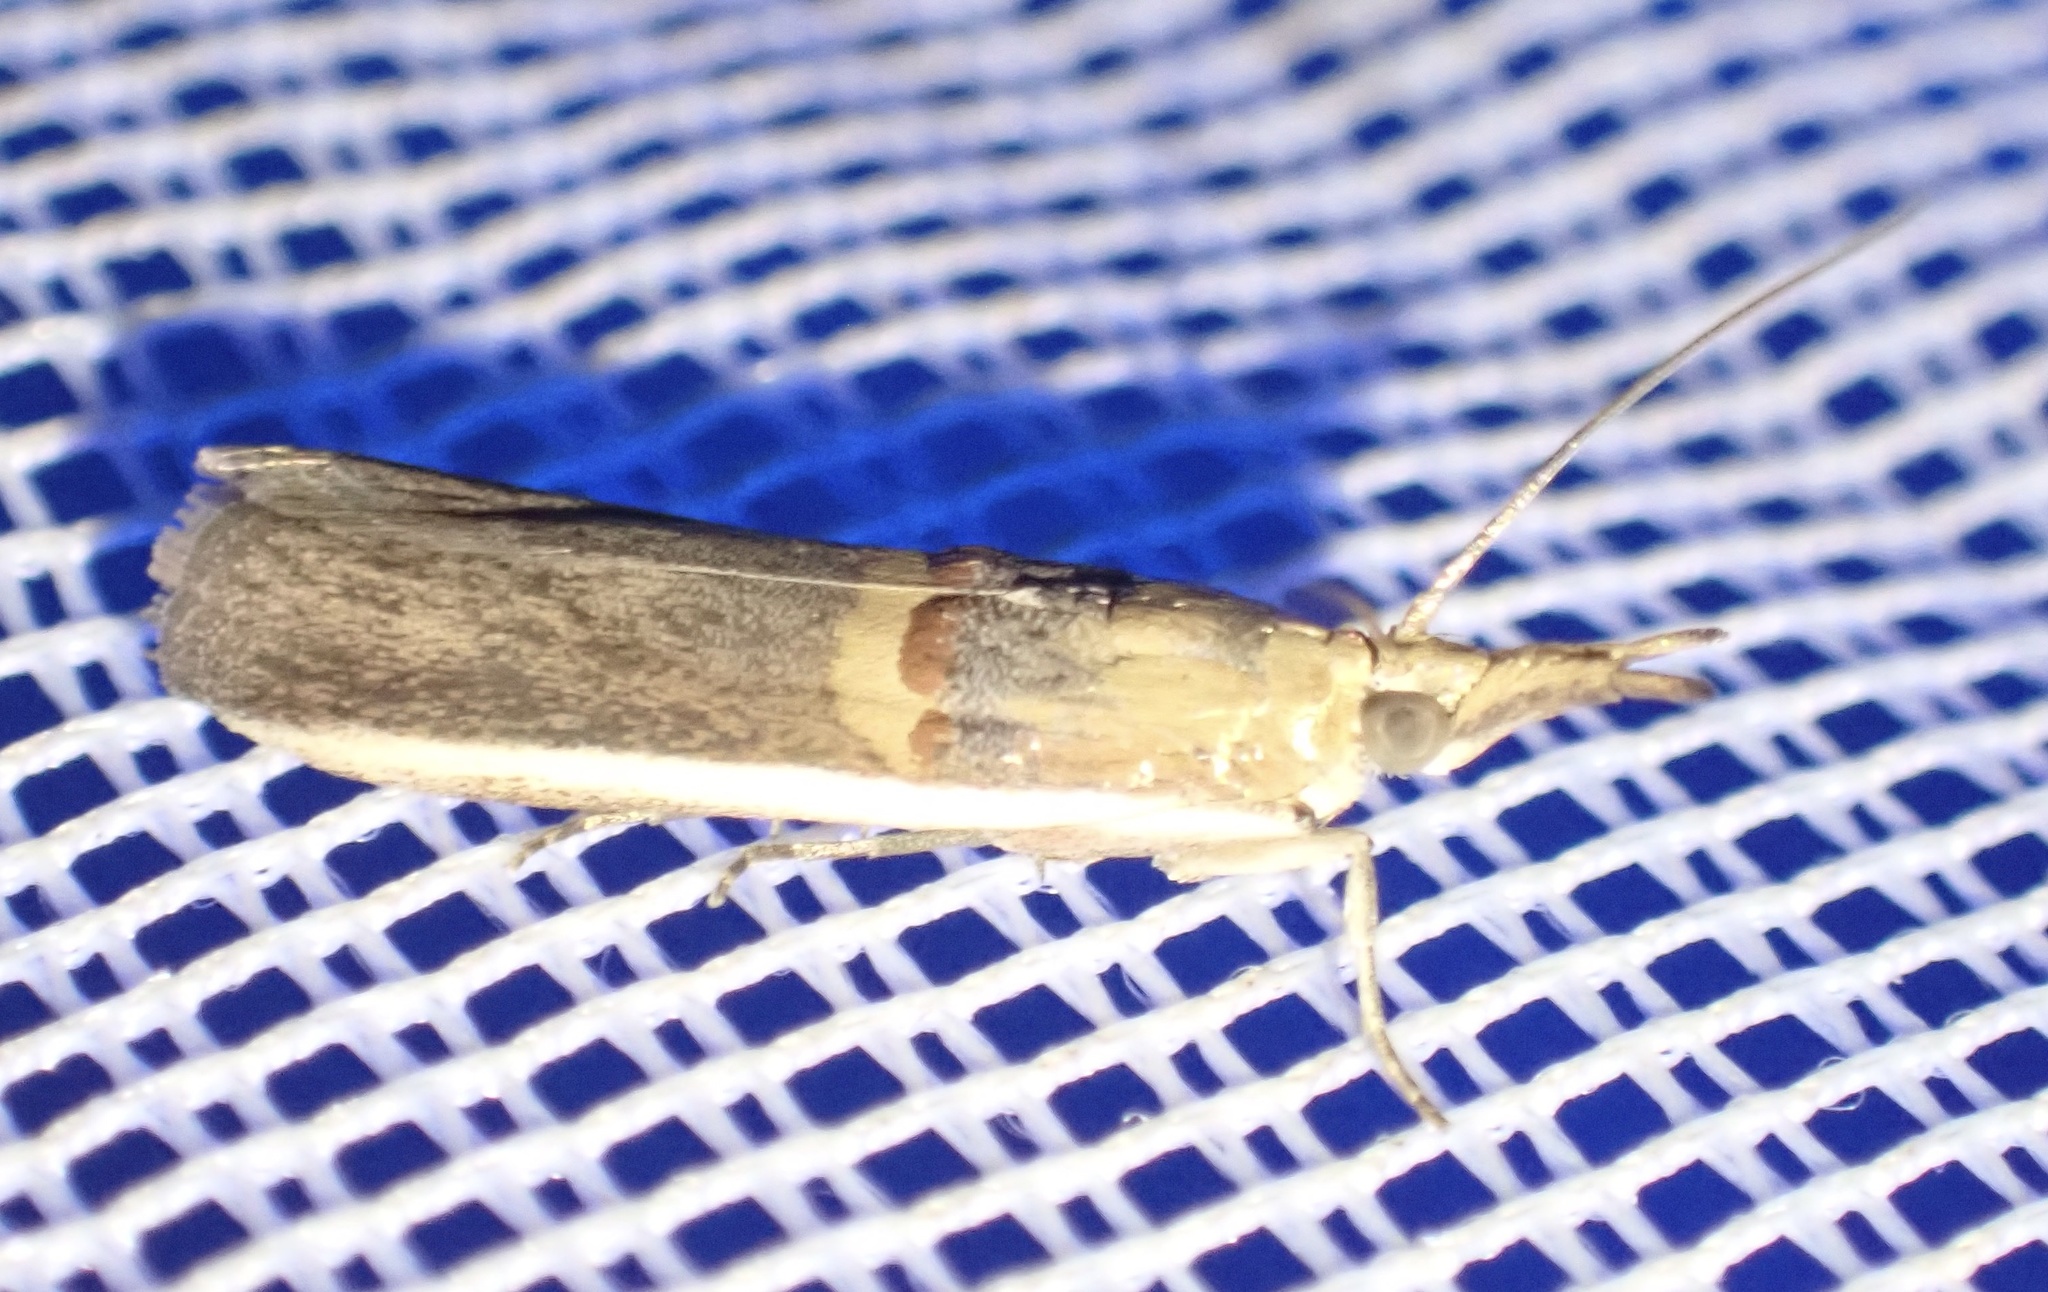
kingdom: Animalia
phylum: Arthropoda
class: Insecta
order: Lepidoptera
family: Pyralidae
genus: Etiella
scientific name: Etiella zinckenella
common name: Gold-banded etiella moth
